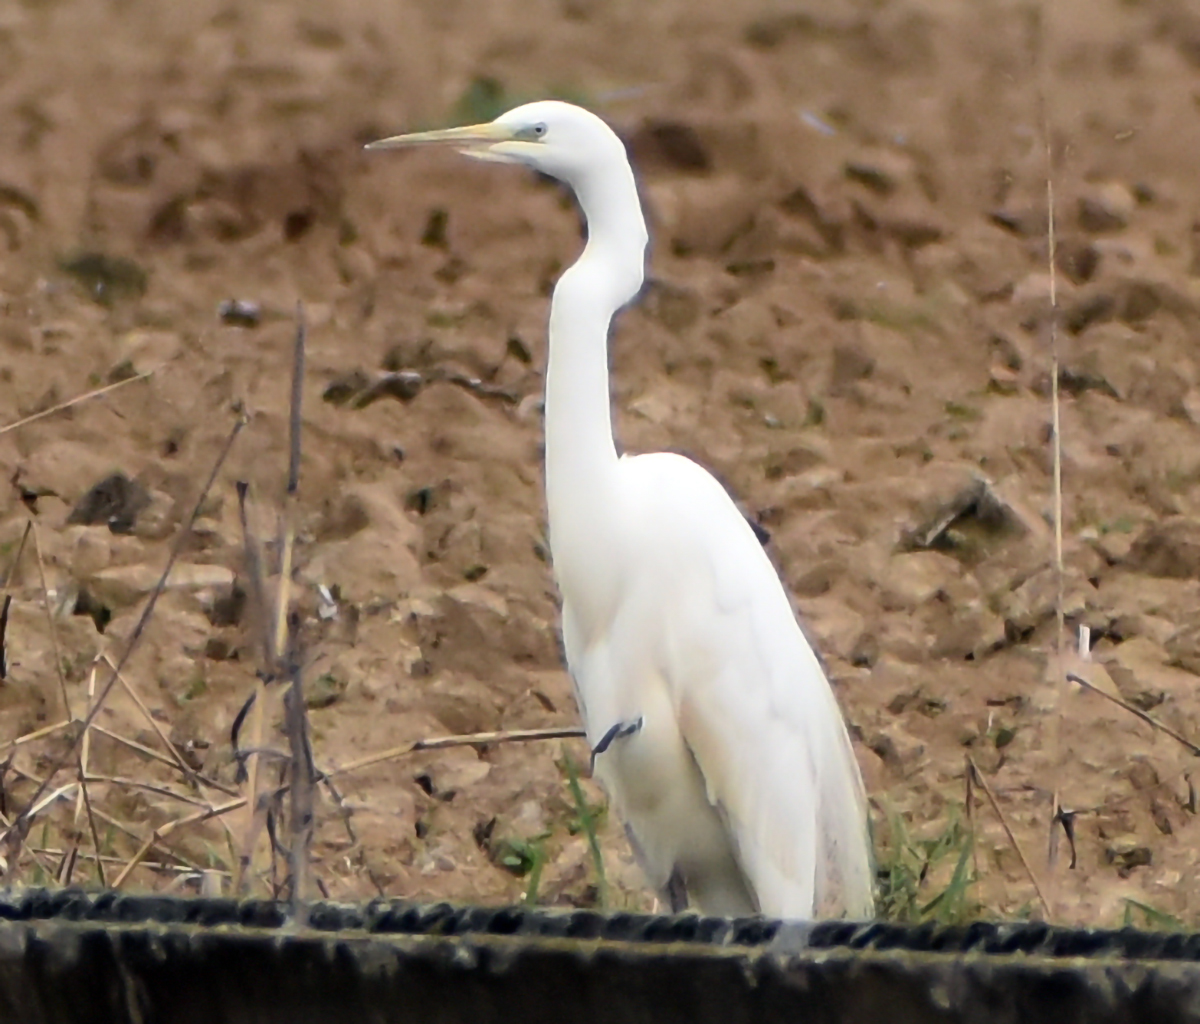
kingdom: Animalia
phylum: Chordata
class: Aves
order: Pelecaniformes
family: Ardeidae
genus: Ardea
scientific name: Ardea alba
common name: Great egret
